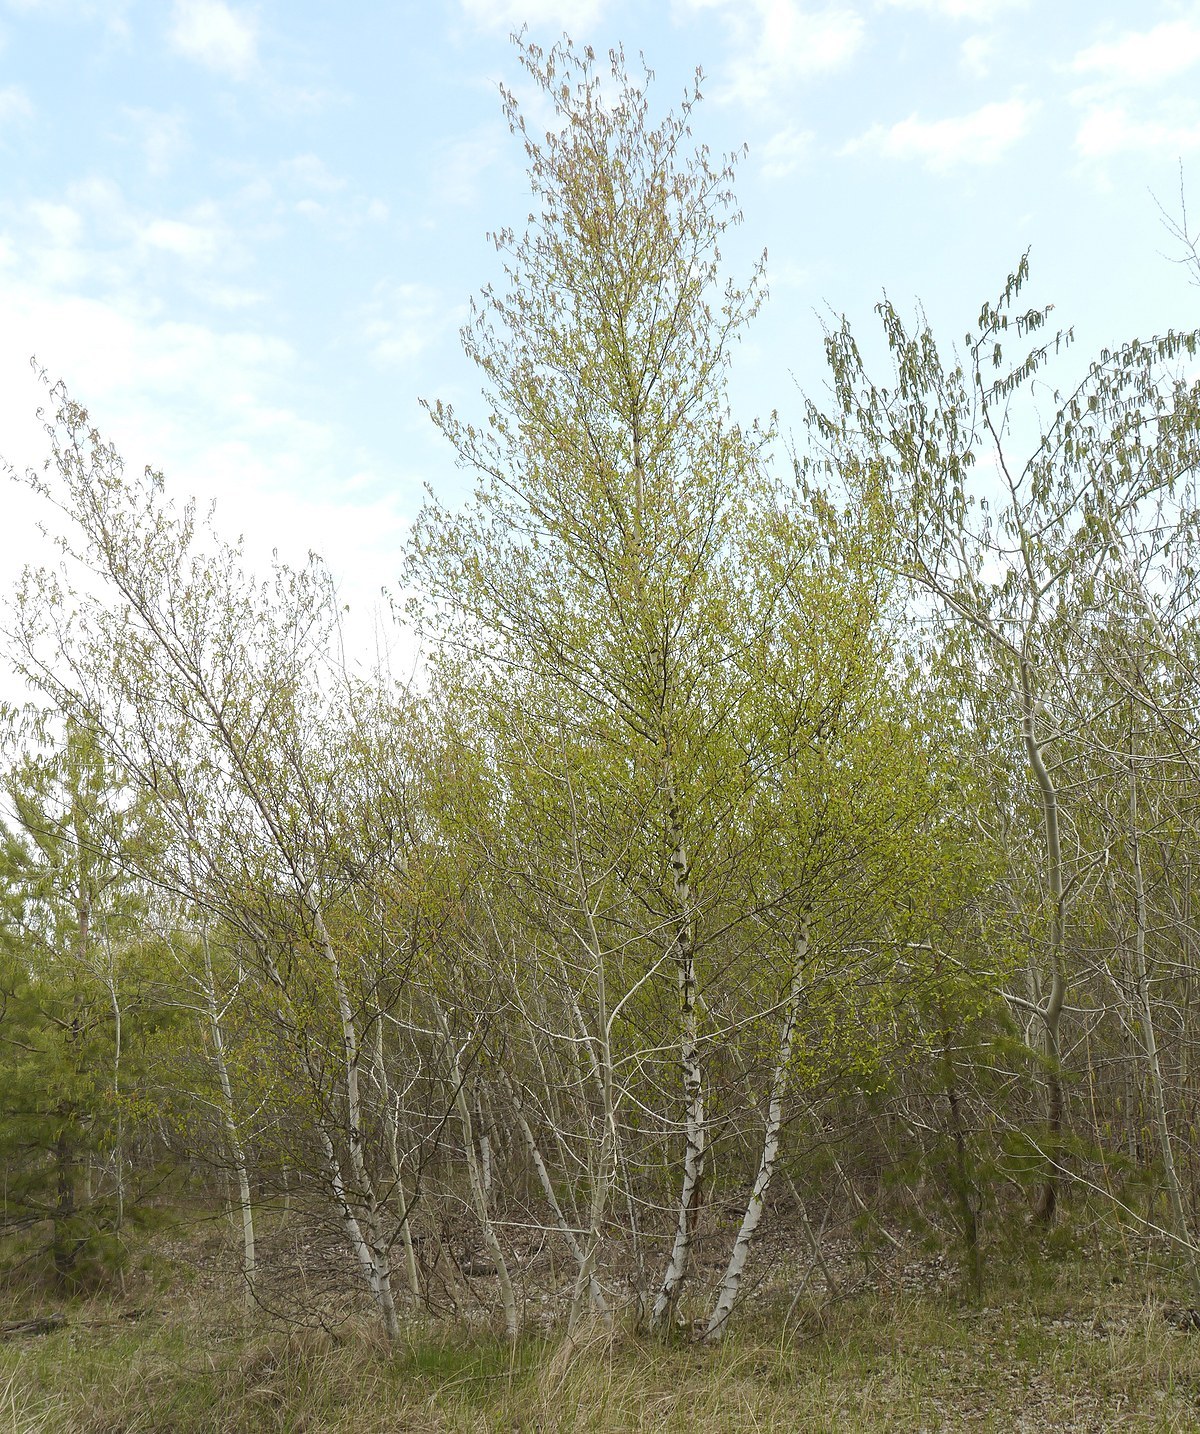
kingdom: Plantae
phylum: Tracheophyta
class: Magnoliopsida
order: Fagales
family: Betulaceae
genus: Betula
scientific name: Betula pubescens
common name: Downy birch
